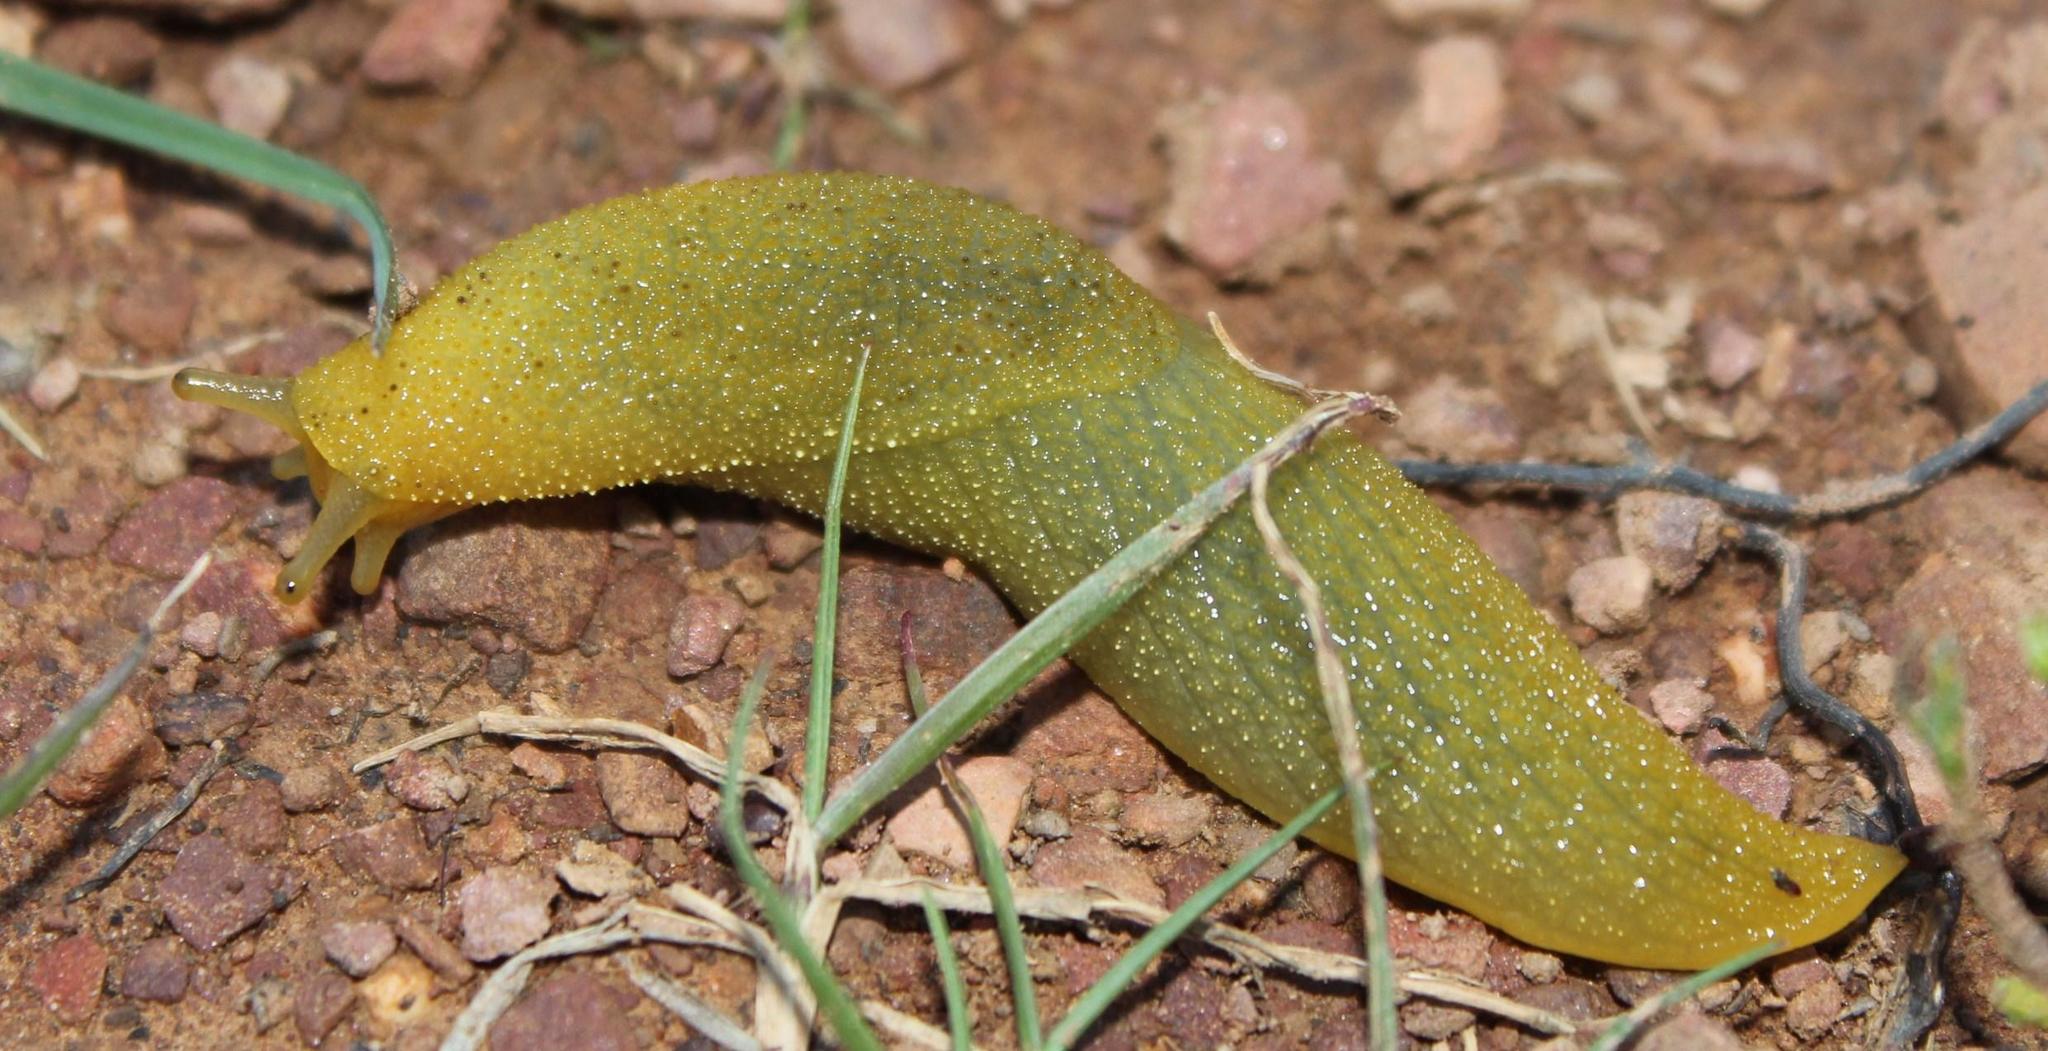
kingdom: Animalia
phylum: Mollusca
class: Gastropoda
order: Stylommatophora
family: Oopeltidae
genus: Oopelta
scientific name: Oopelta flavescens
